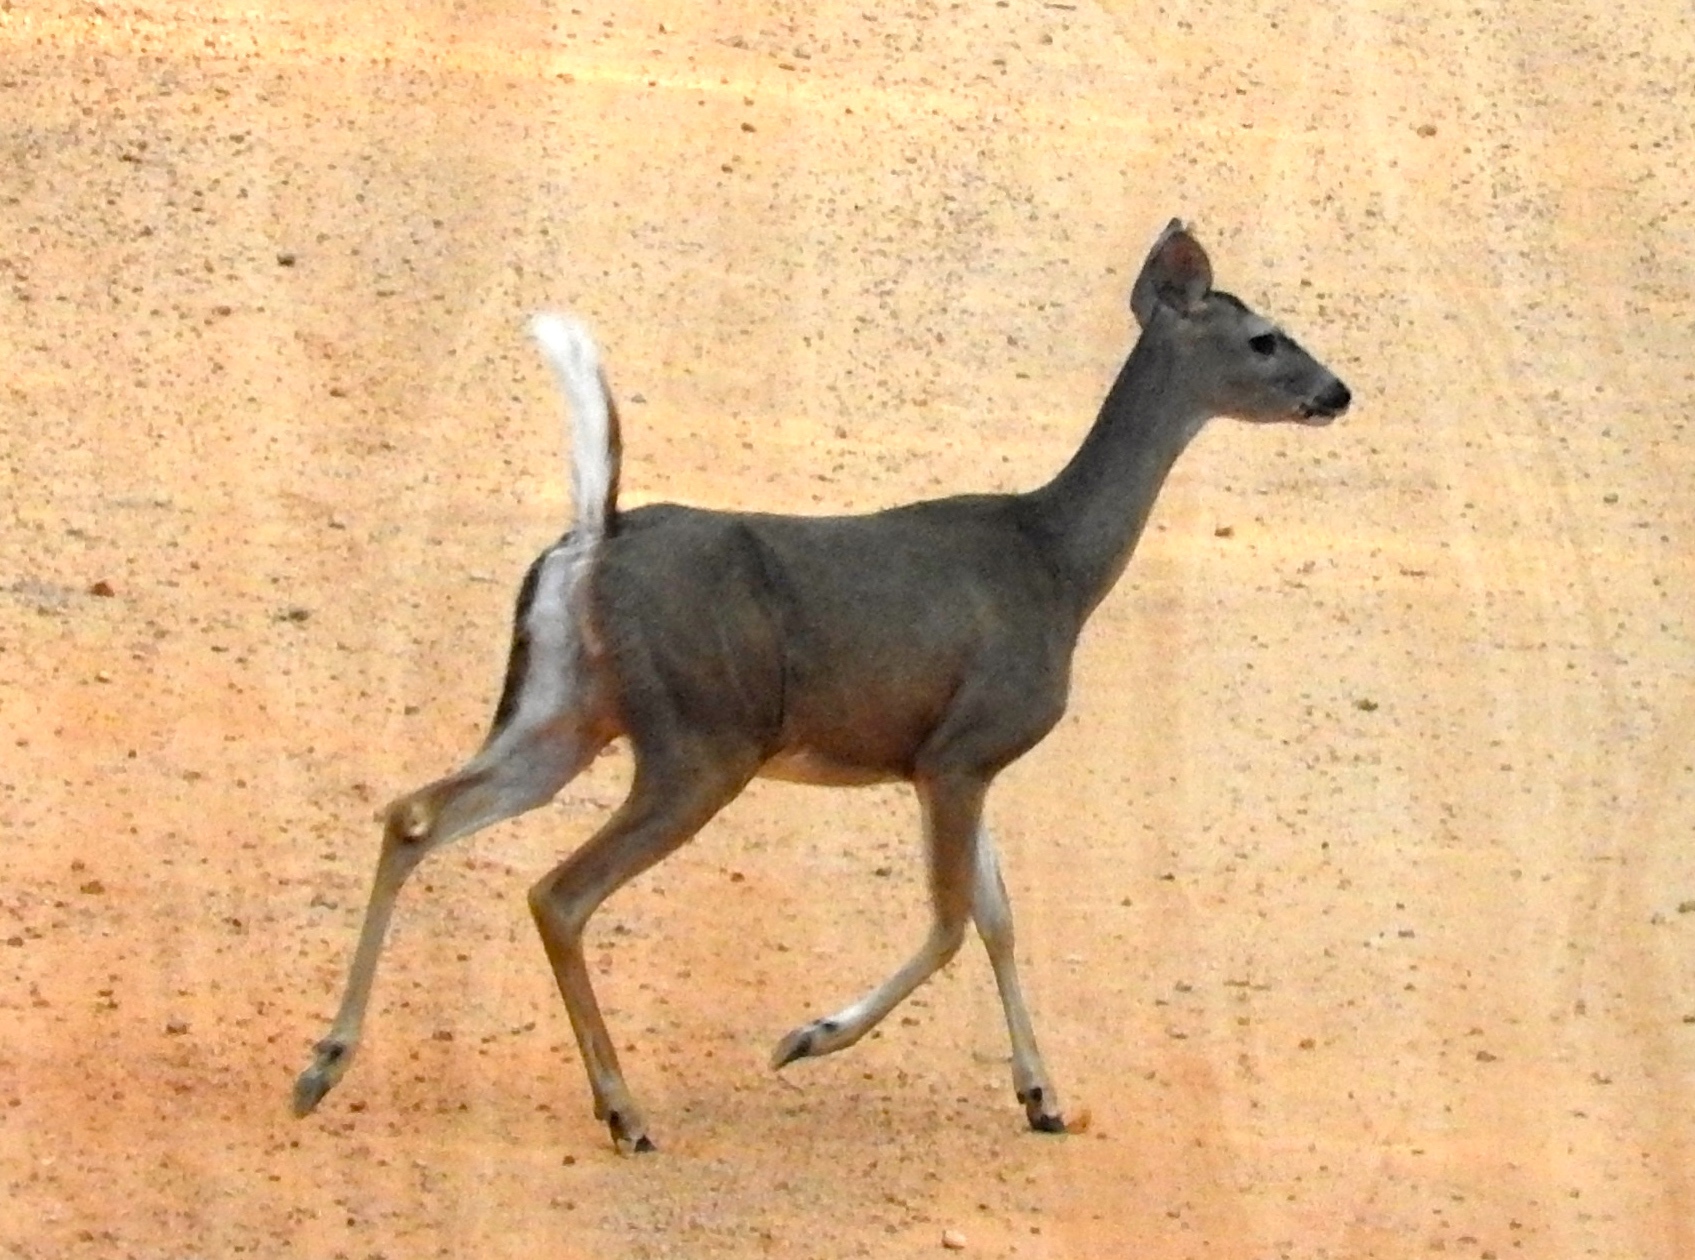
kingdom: Animalia
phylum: Chordata
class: Mammalia
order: Artiodactyla
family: Cervidae
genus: Odocoileus
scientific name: Odocoileus virginianus
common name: White-tailed deer
